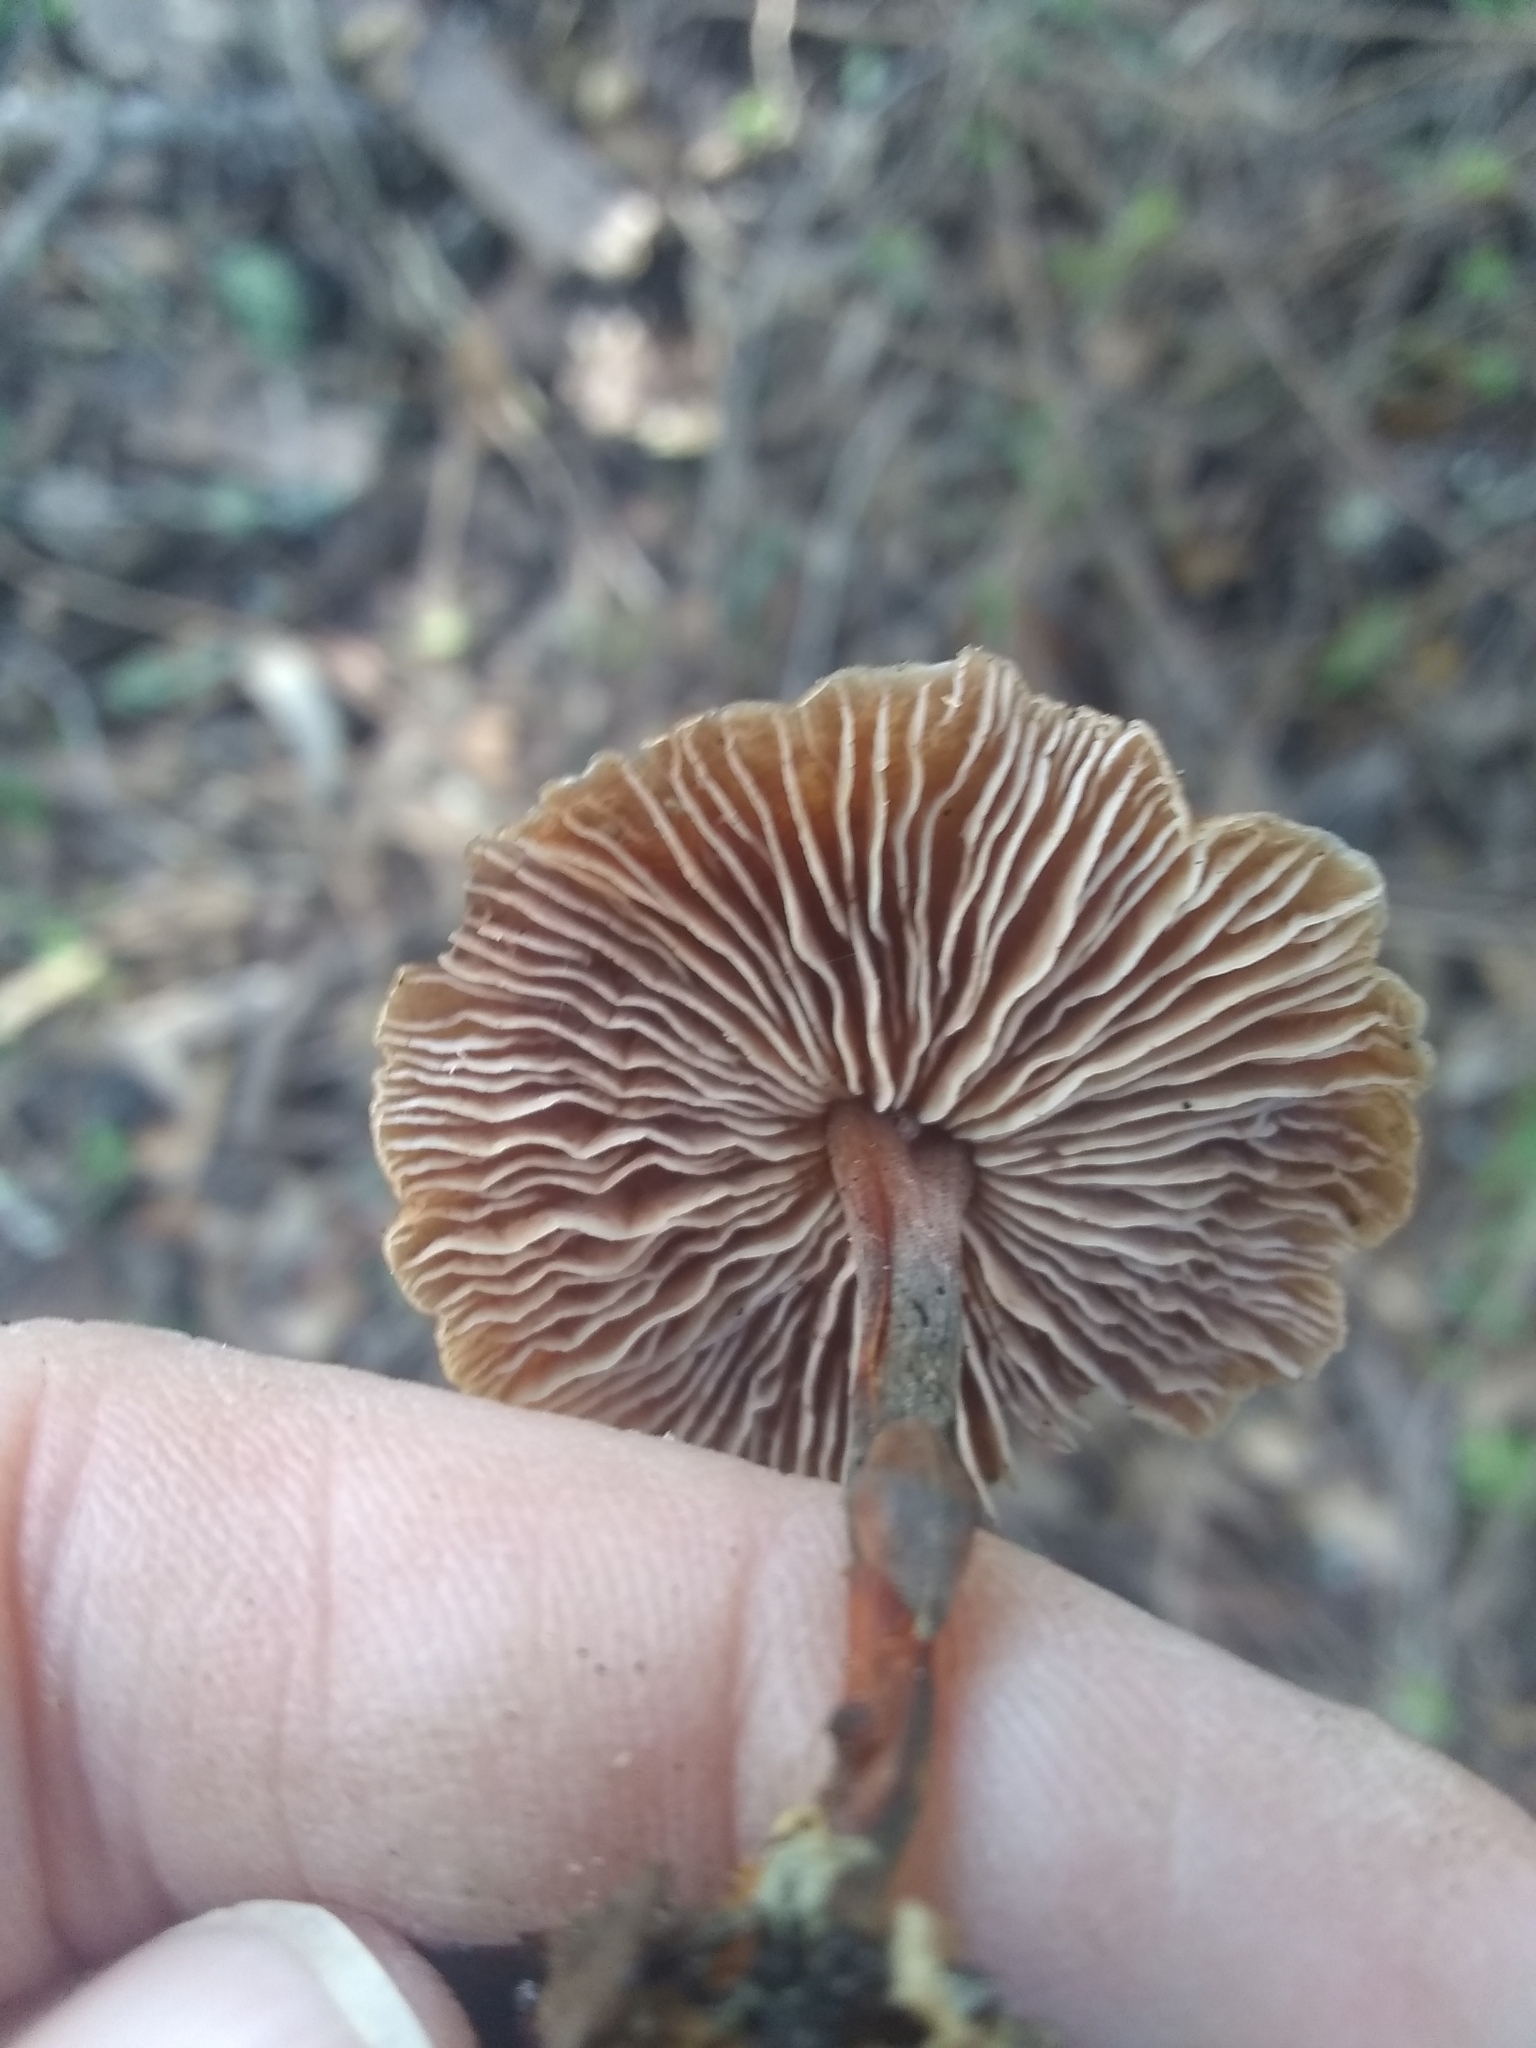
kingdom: Fungi
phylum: Basidiomycota
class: Agaricomycetes
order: Agaricales
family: Omphalotaceae
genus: Gymnopus
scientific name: Gymnopus brassicolens
